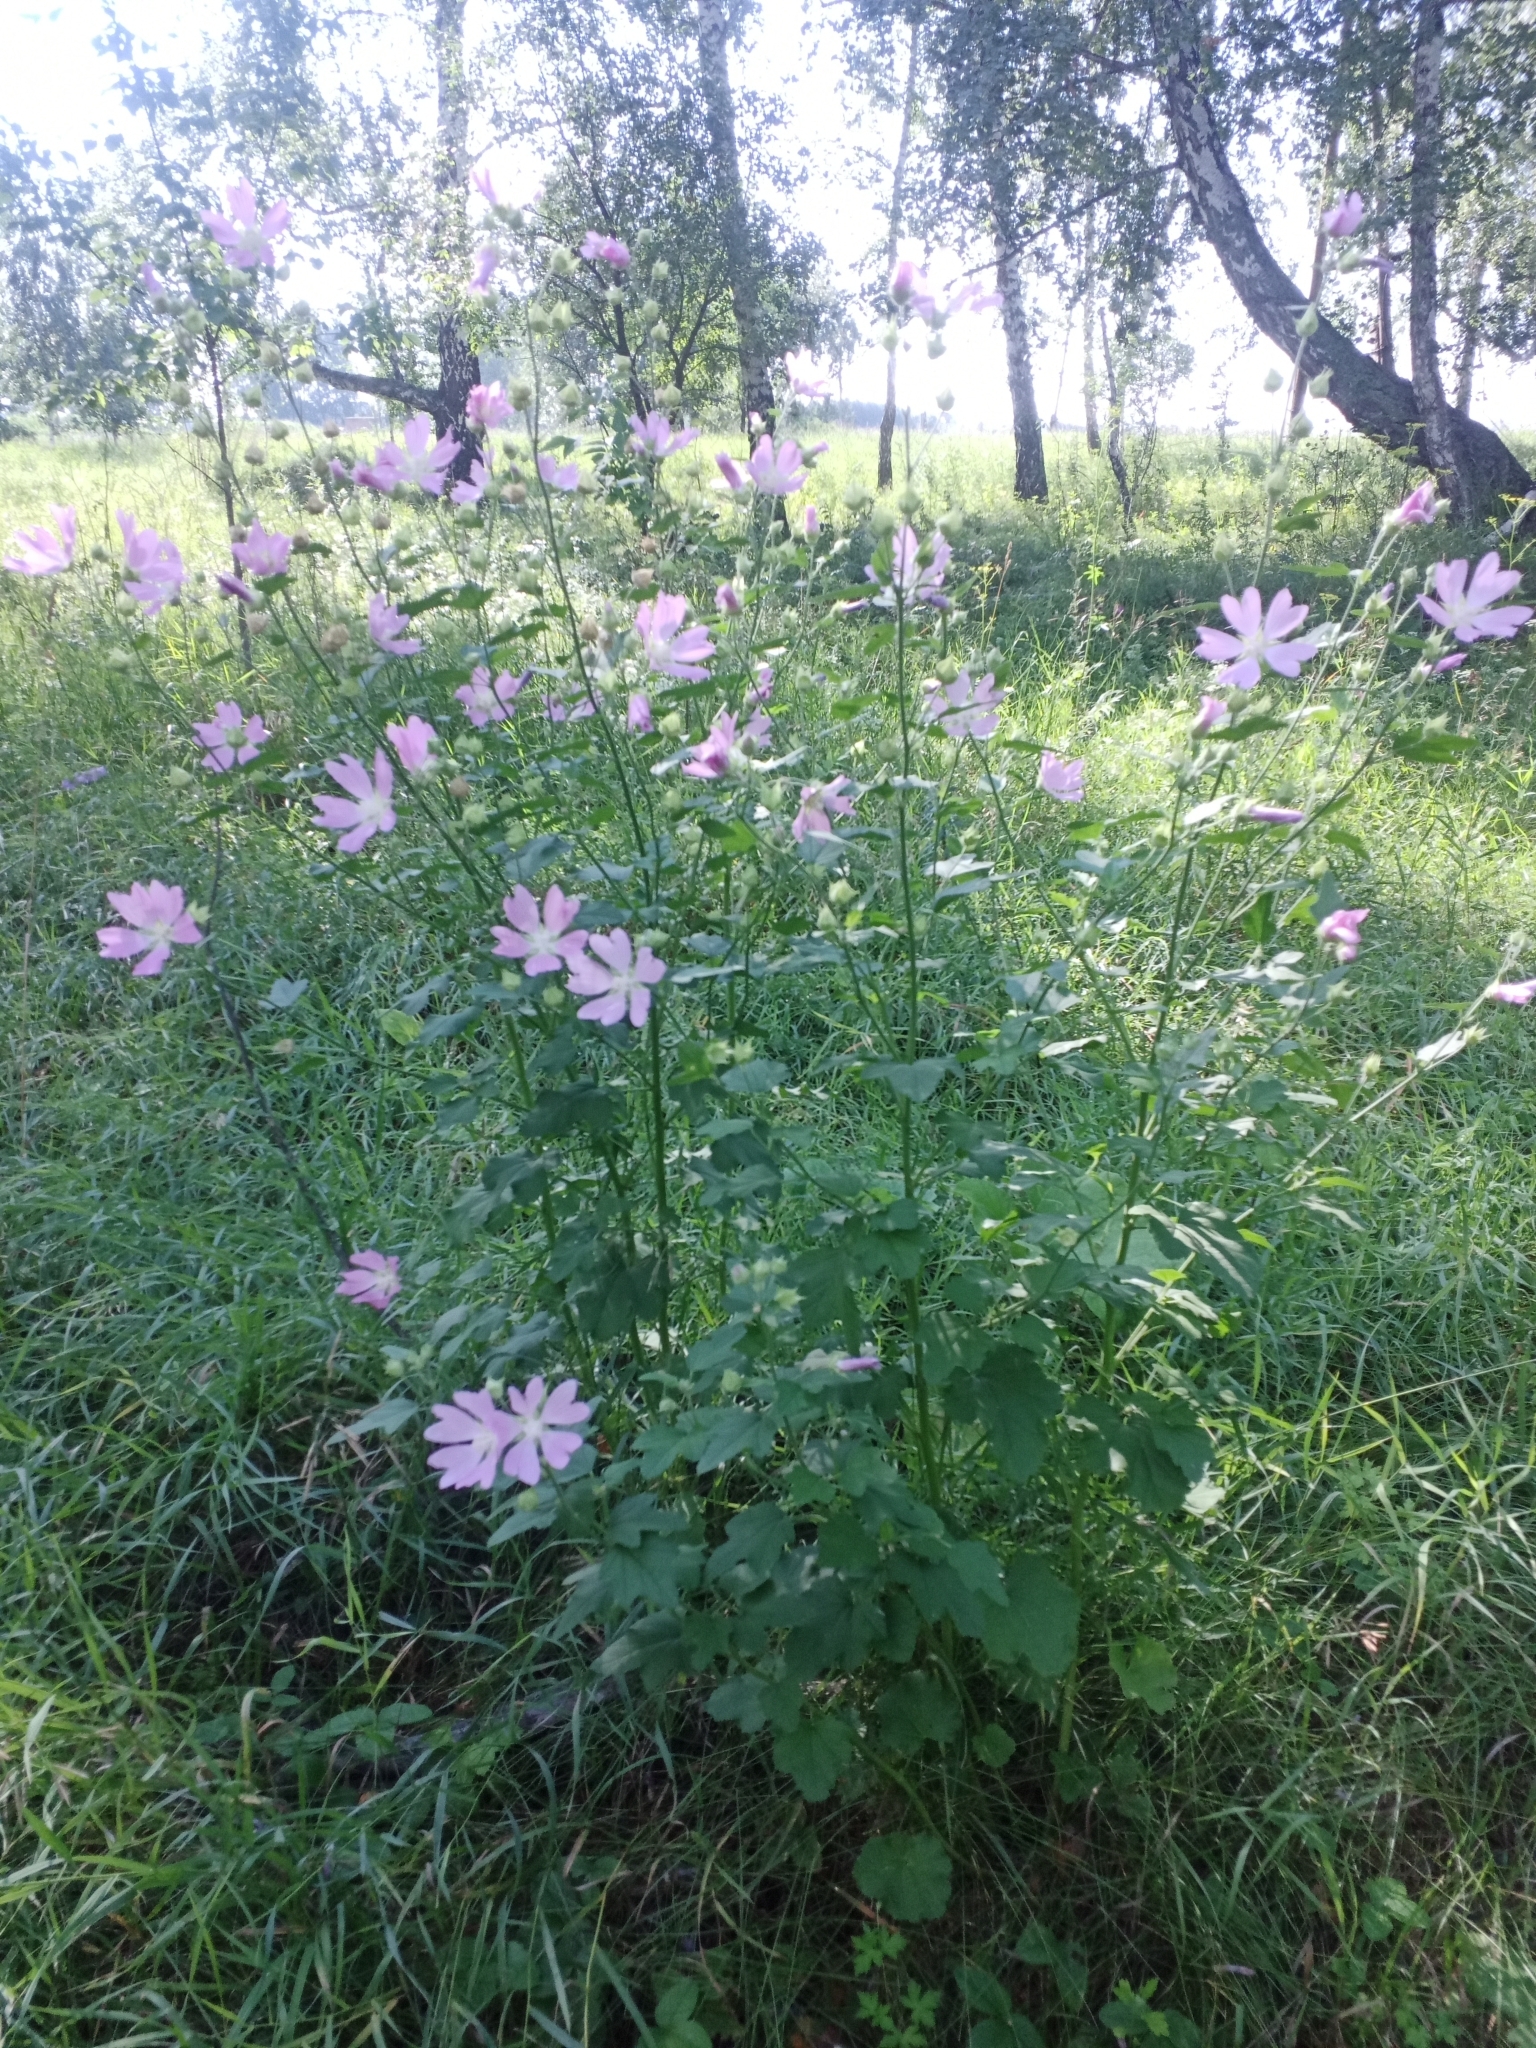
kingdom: Plantae
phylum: Tracheophyta
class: Magnoliopsida
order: Malvales
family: Malvaceae
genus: Malva
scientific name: Malva thuringiaca
